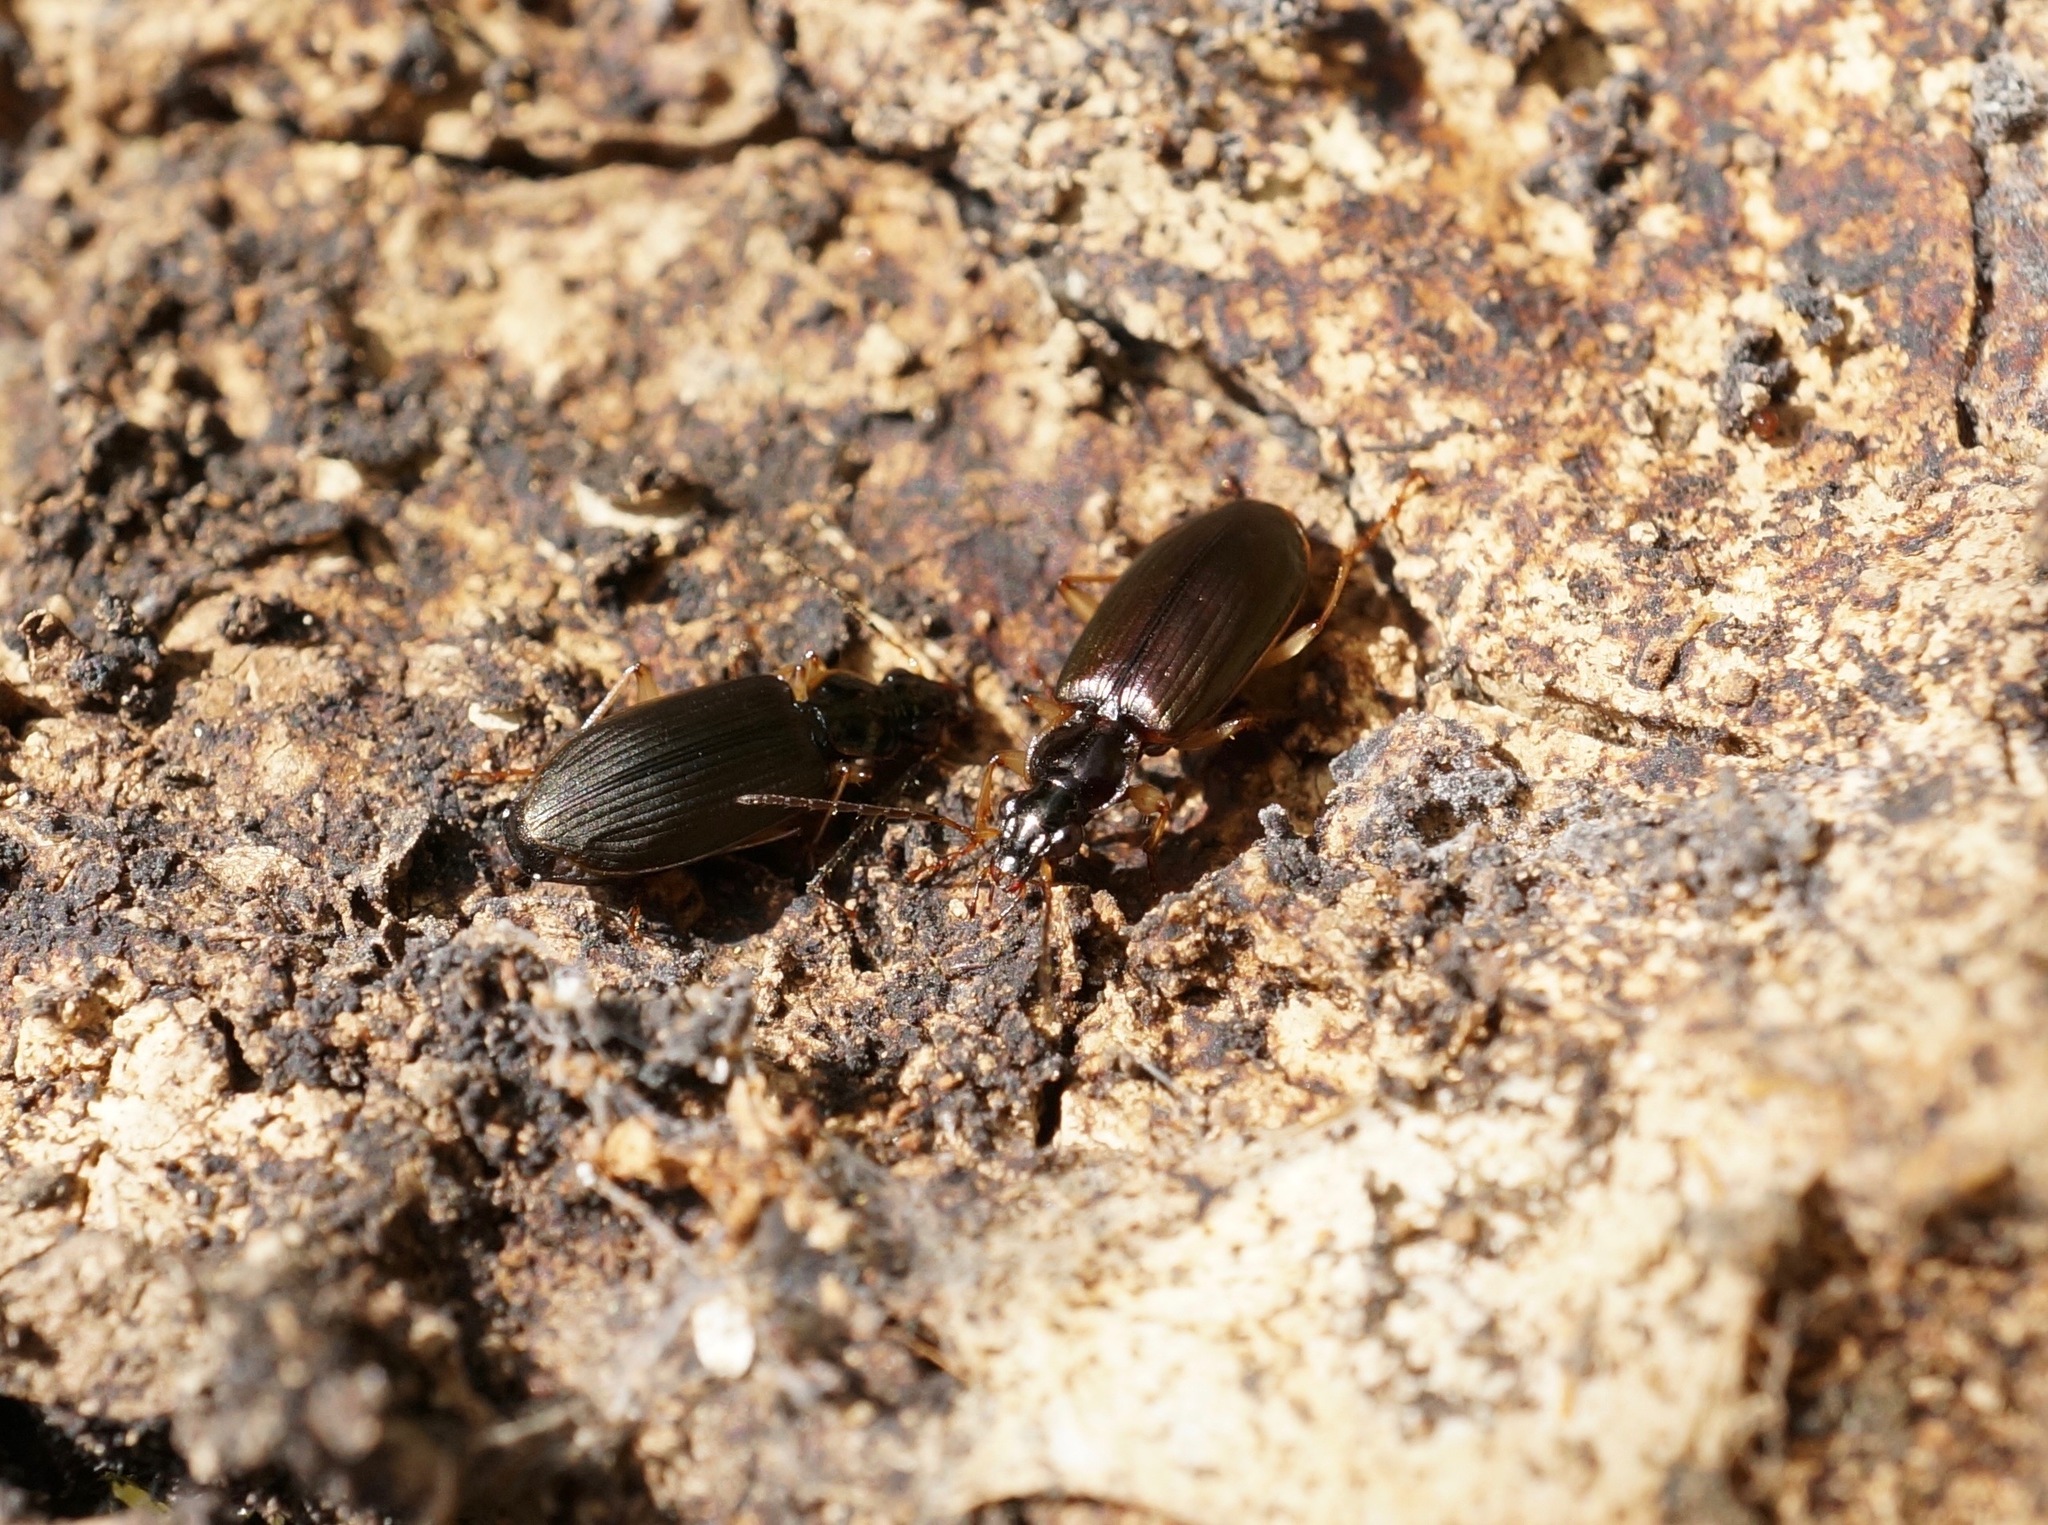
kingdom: Animalia
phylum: Arthropoda
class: Insecta
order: Coleoptera
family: Carabidae
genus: Notagonum
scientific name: Notagonum submetallicum
